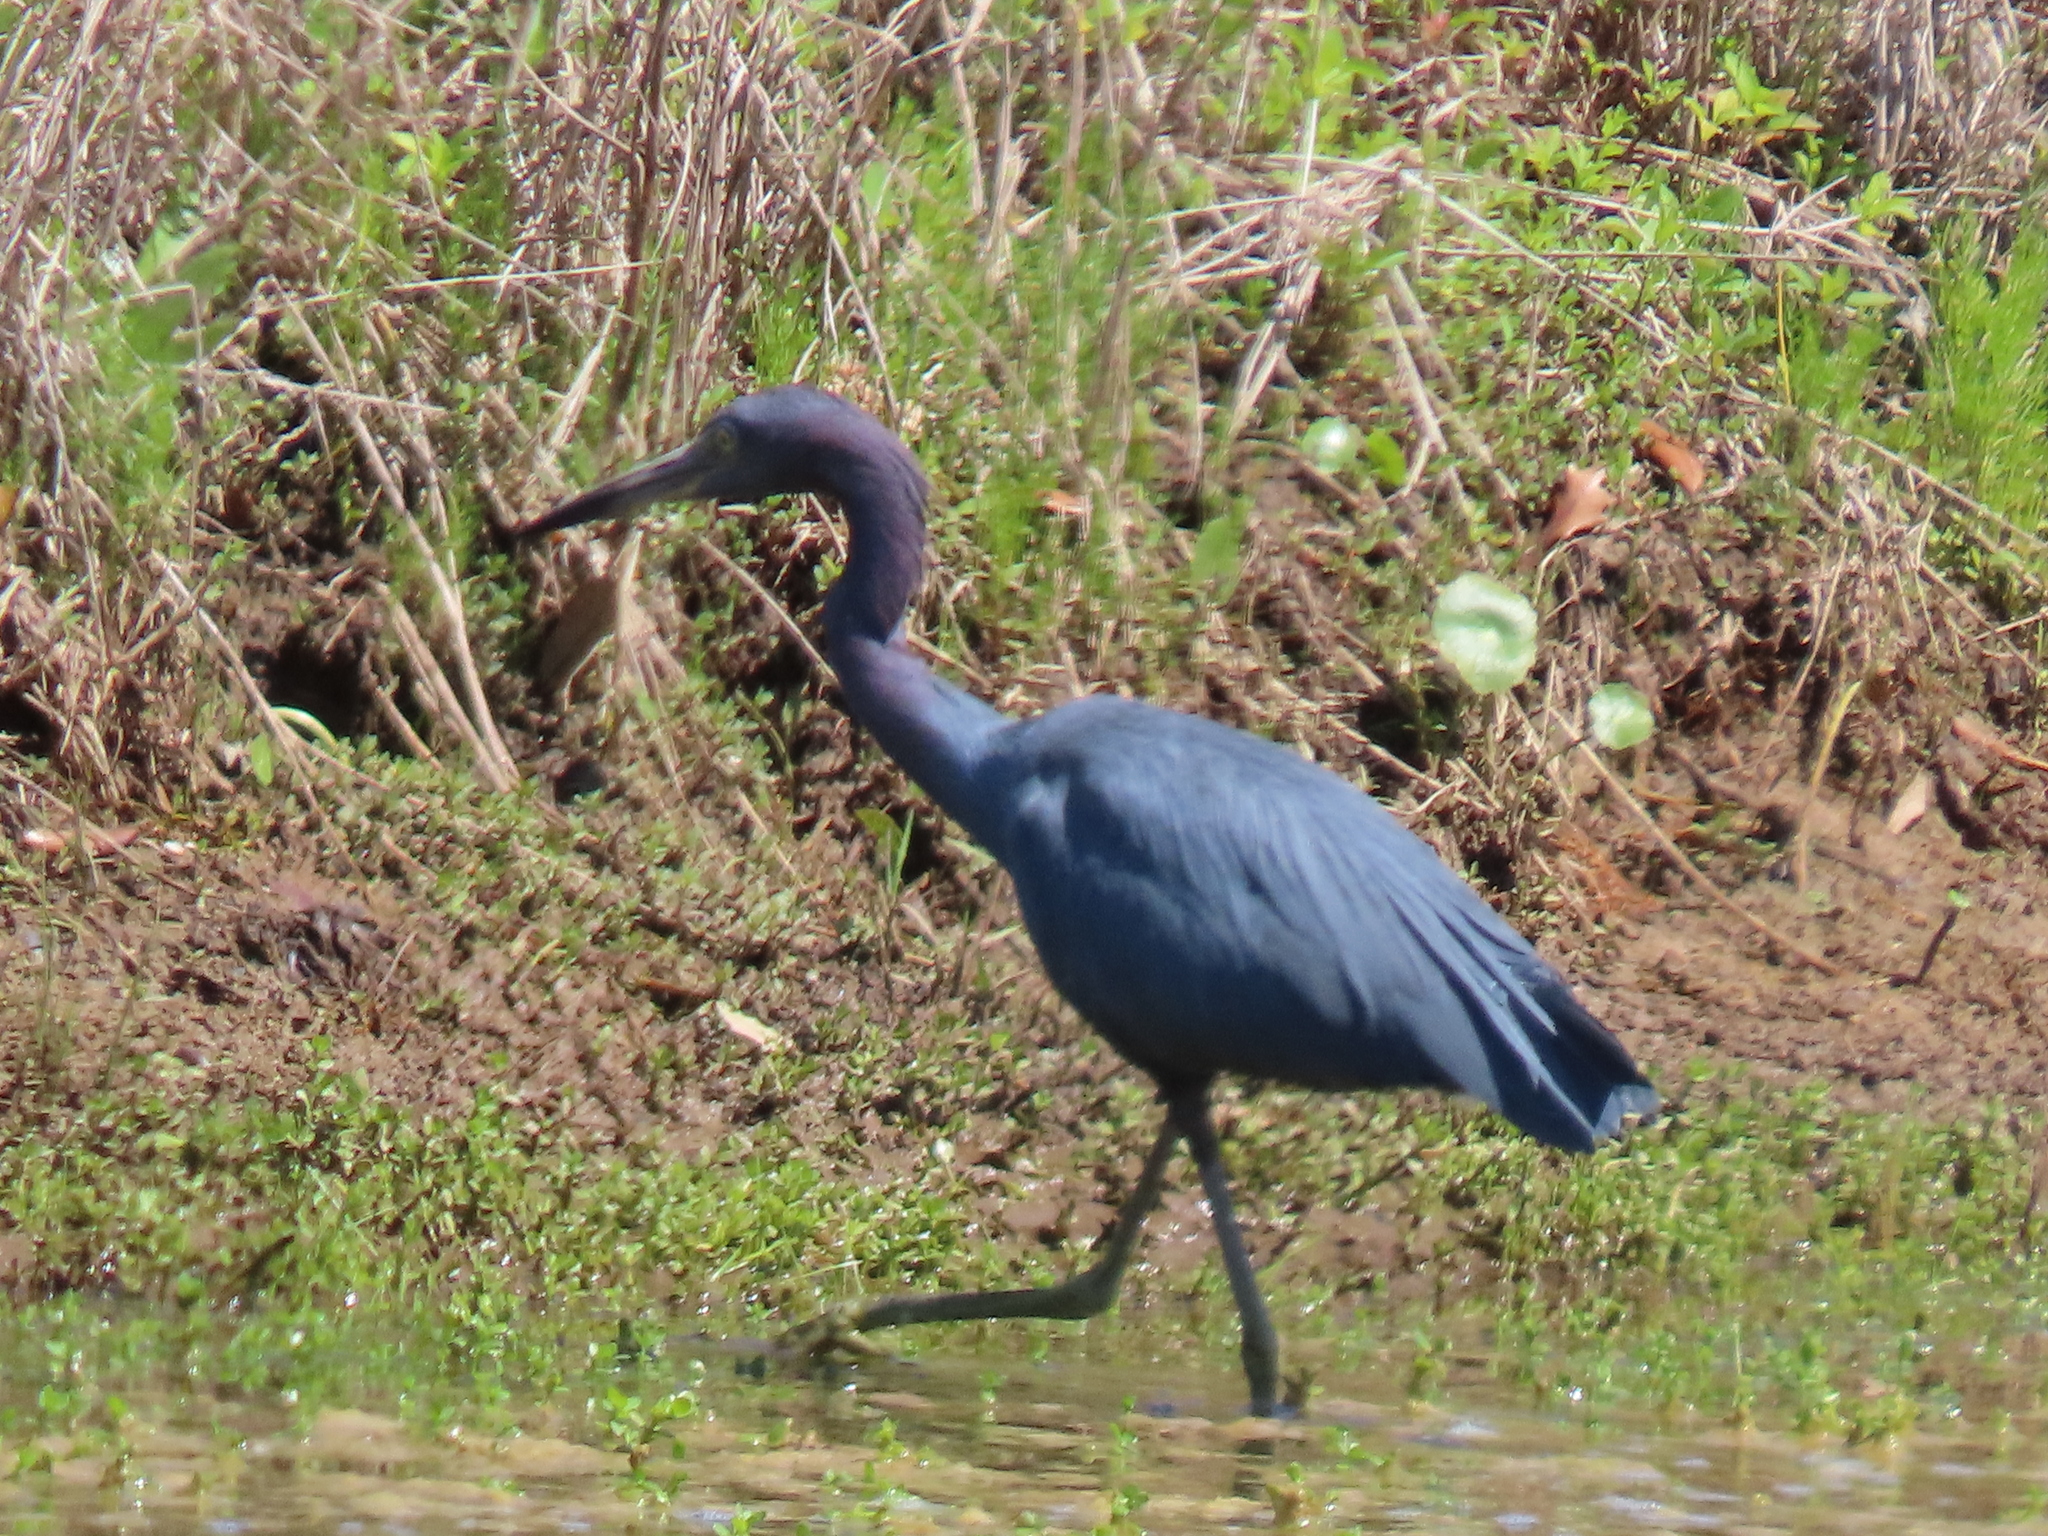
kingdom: Animalia
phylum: Chordata
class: Aves
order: Pelecaniformes
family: Ardeidae
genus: Egretta
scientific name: Egretta caerulea
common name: Little blue heron
